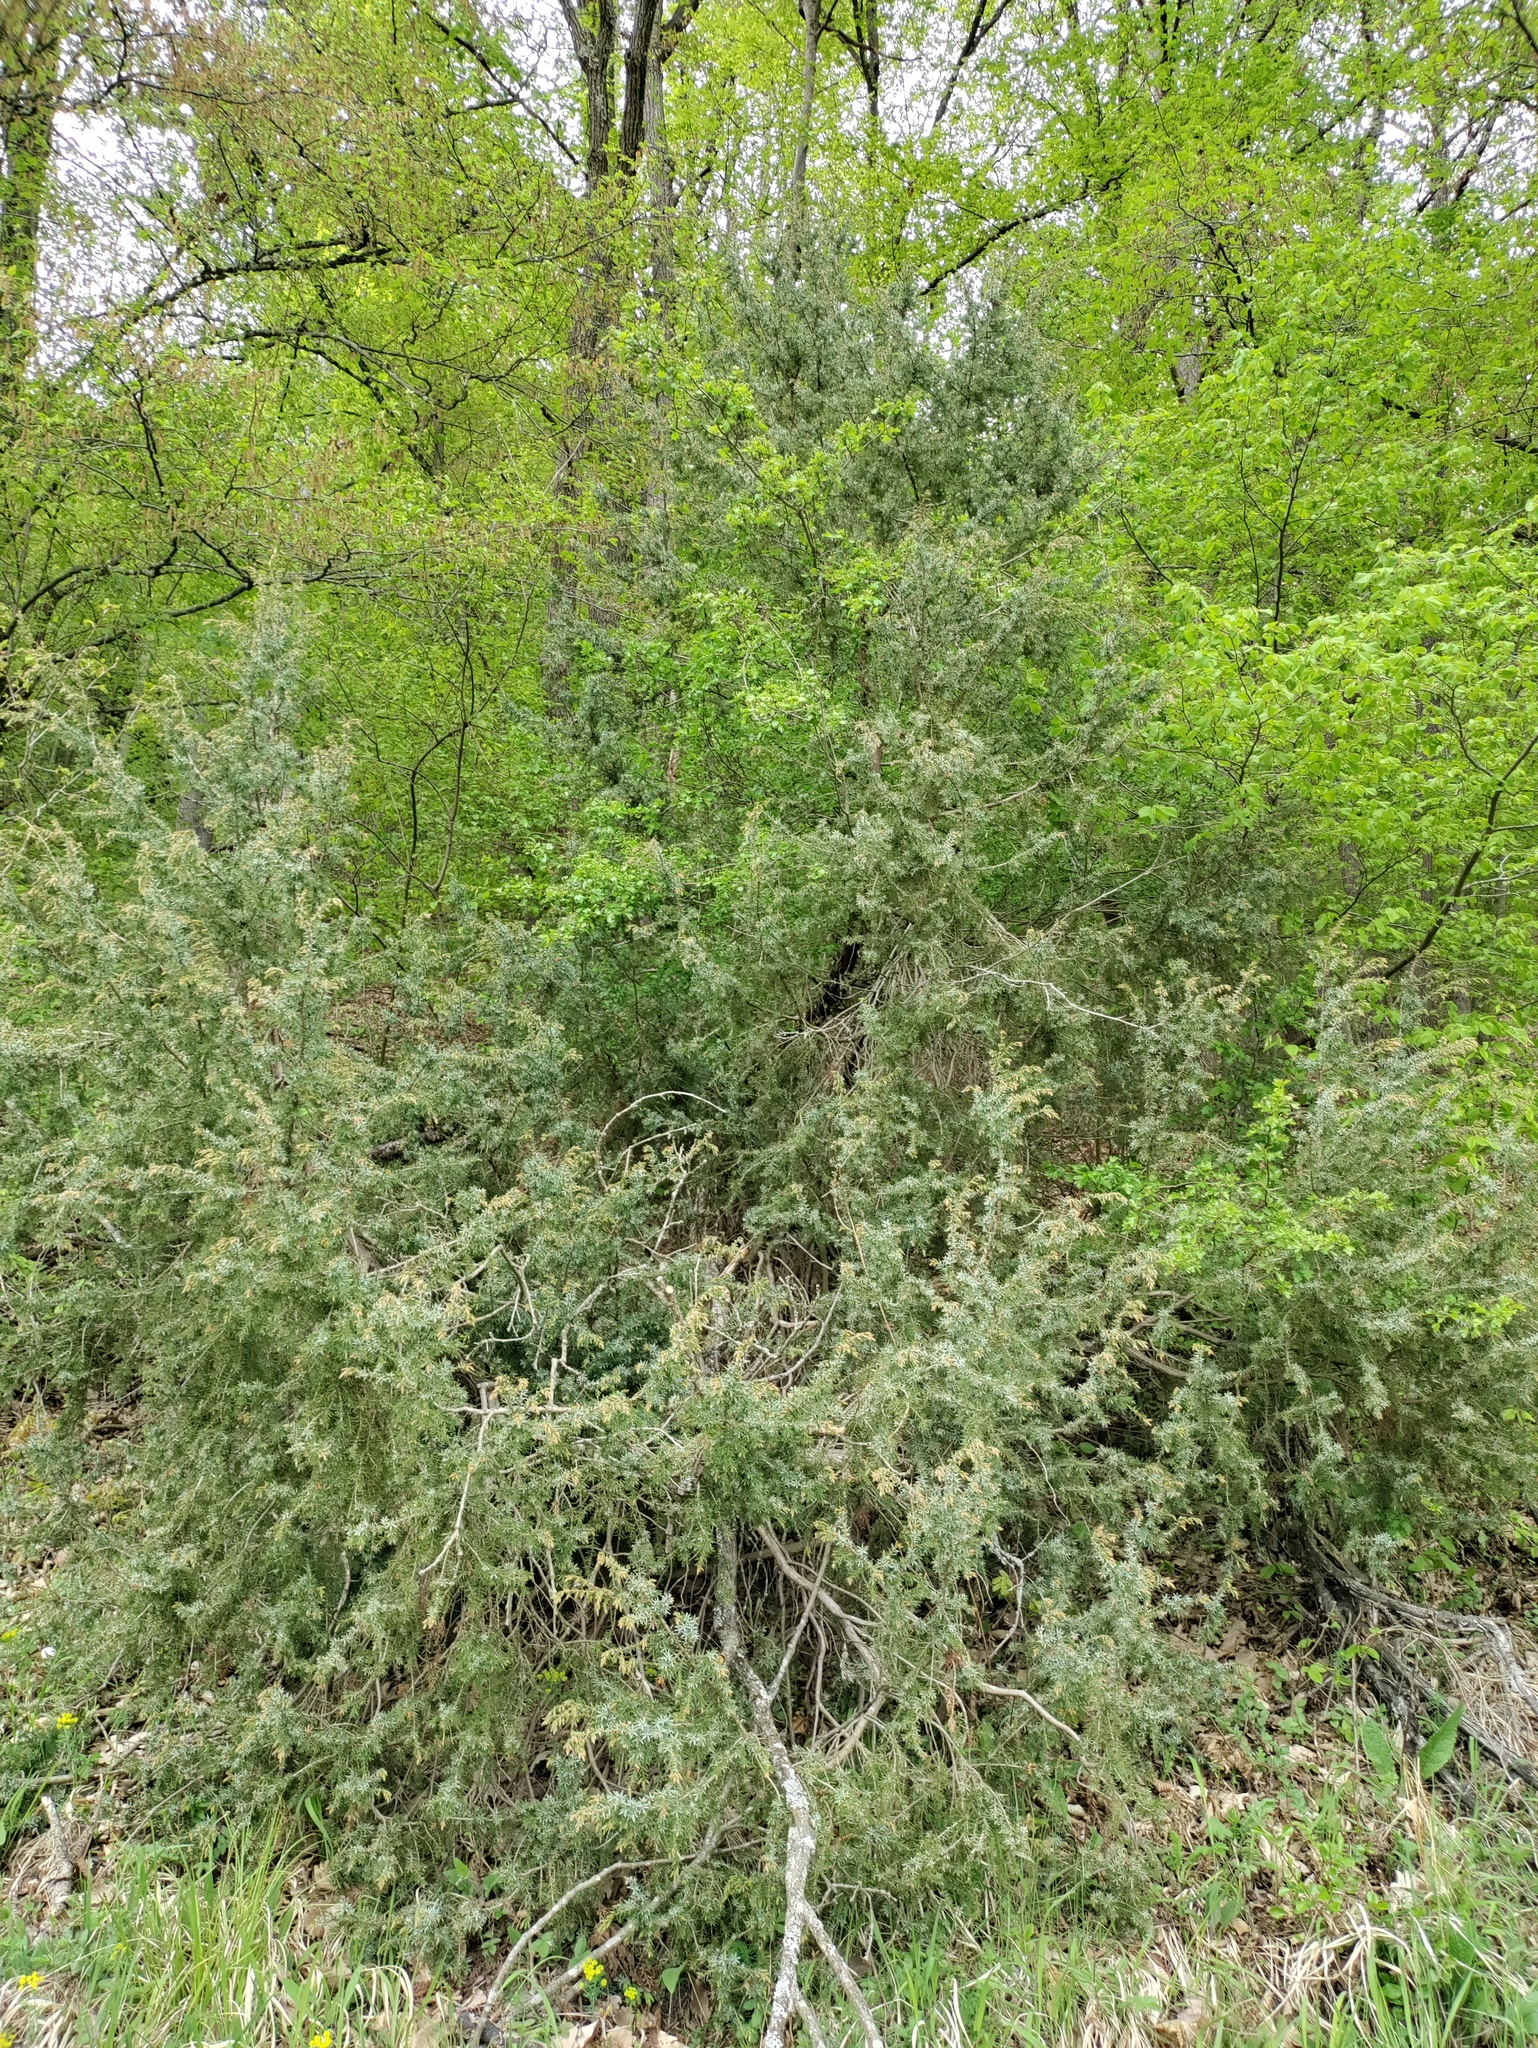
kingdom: Plantae
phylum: Tracheophyta
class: Pinopsida
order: Pinales
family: Cupressaceae
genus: Juniperus
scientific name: Juniperus communis
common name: Common juniper
